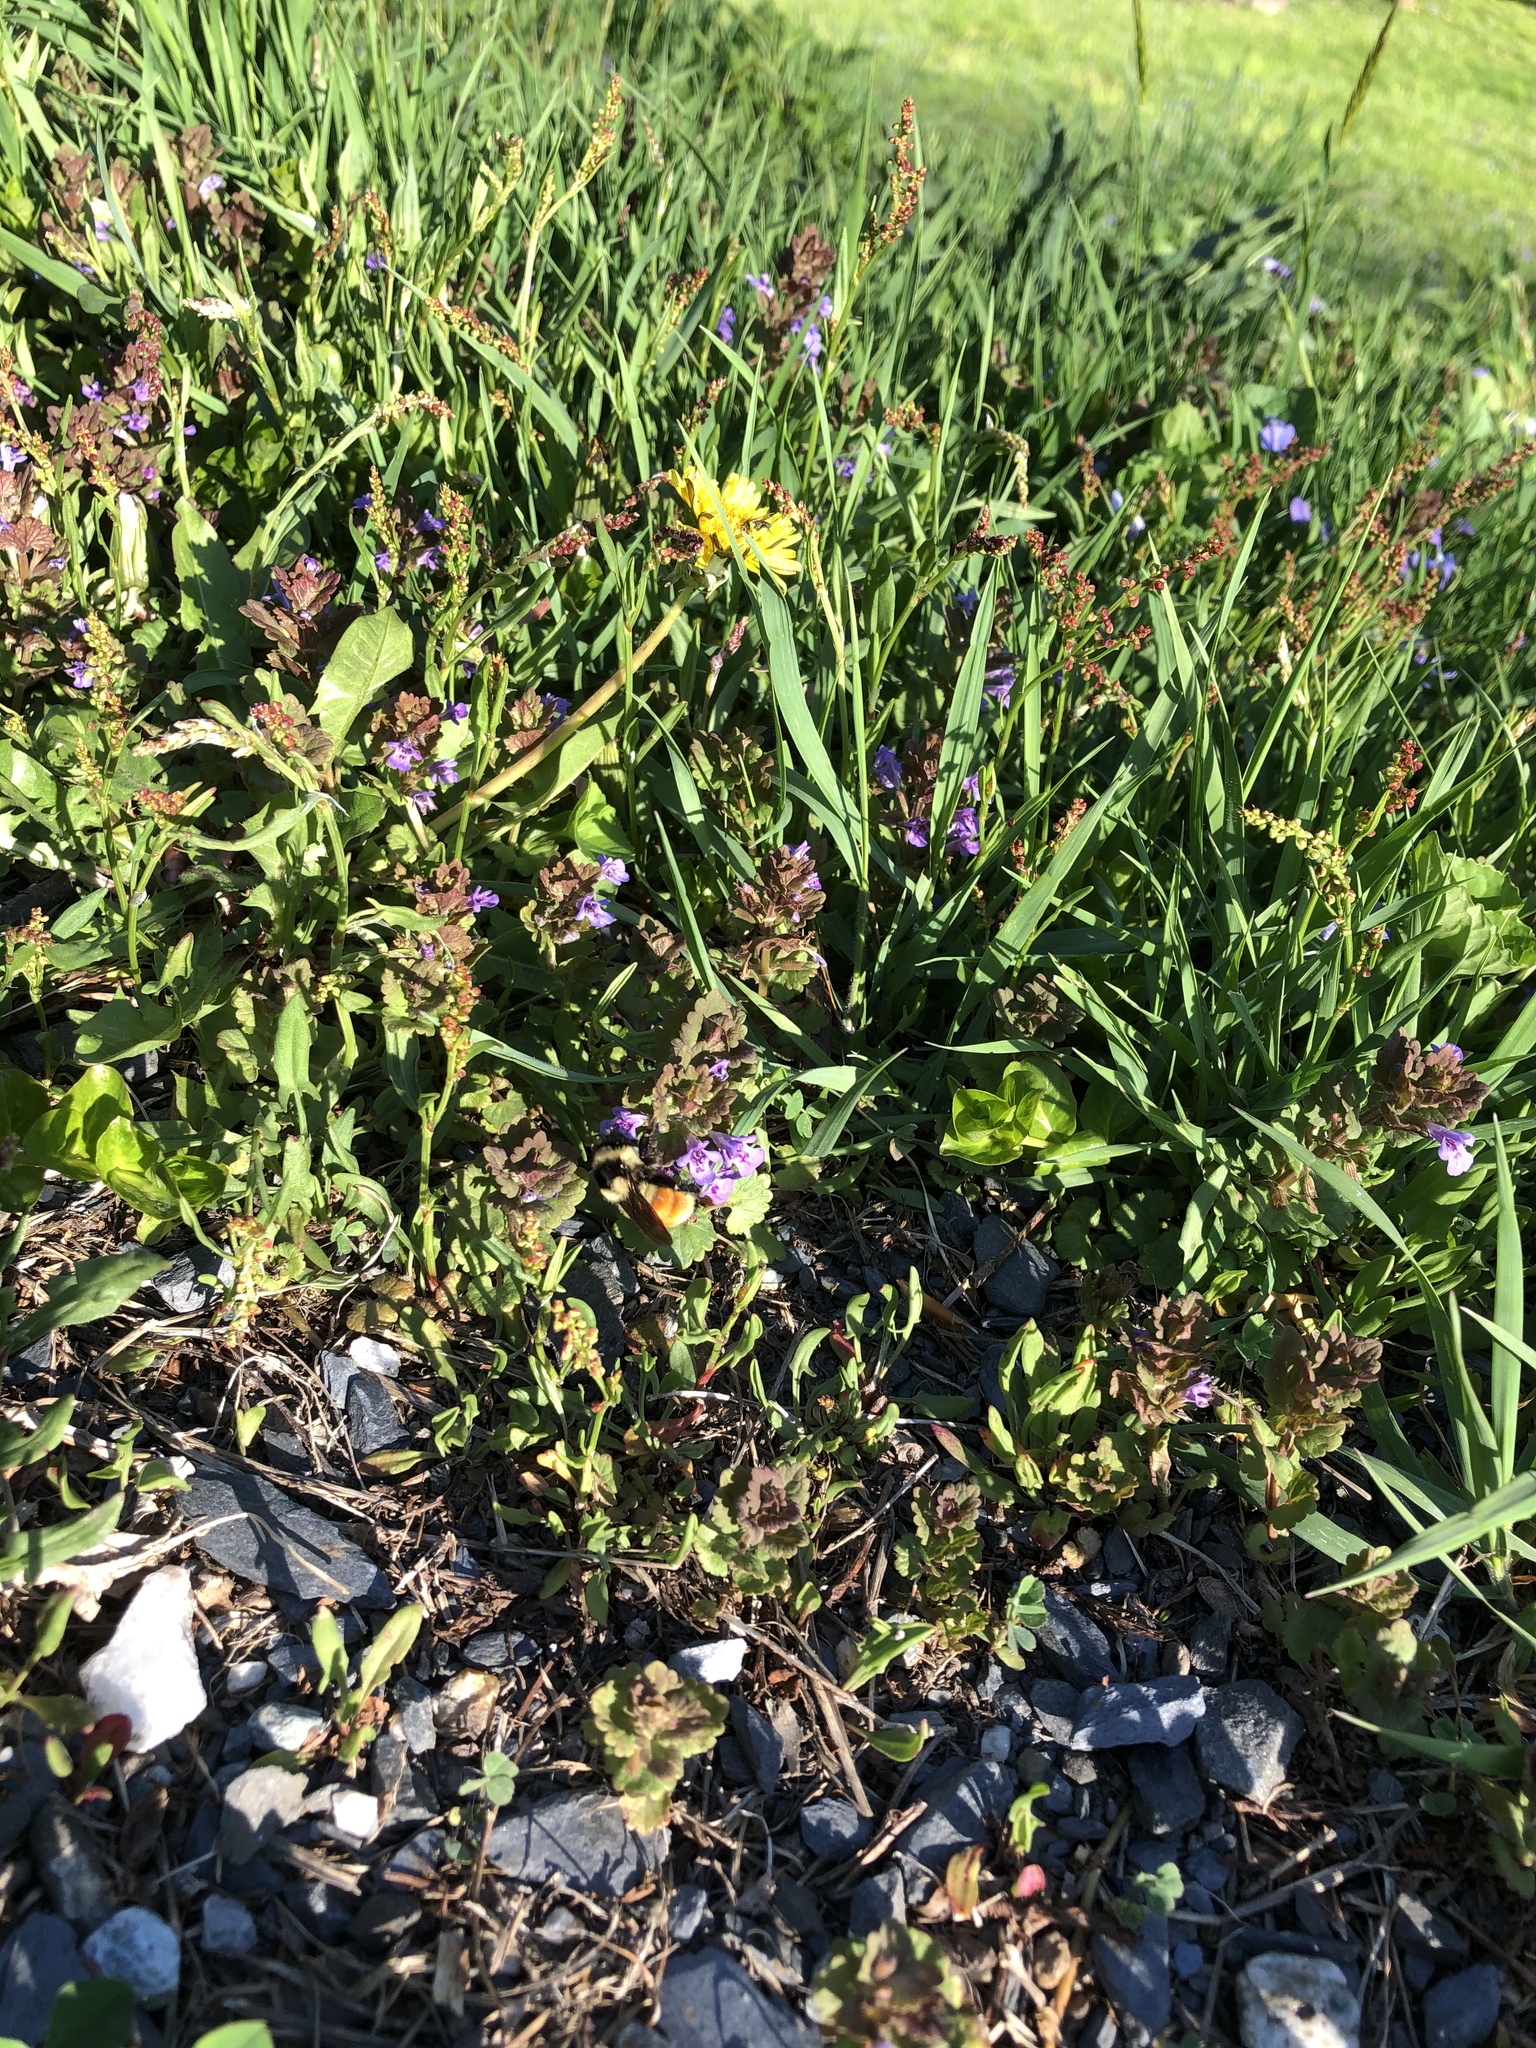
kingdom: Animalia
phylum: Arthropoda
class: Insecta
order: Hymenoptera
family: Apidae
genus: Bombus
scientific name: Bombus ternarius
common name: Tri-colored bumble bee
